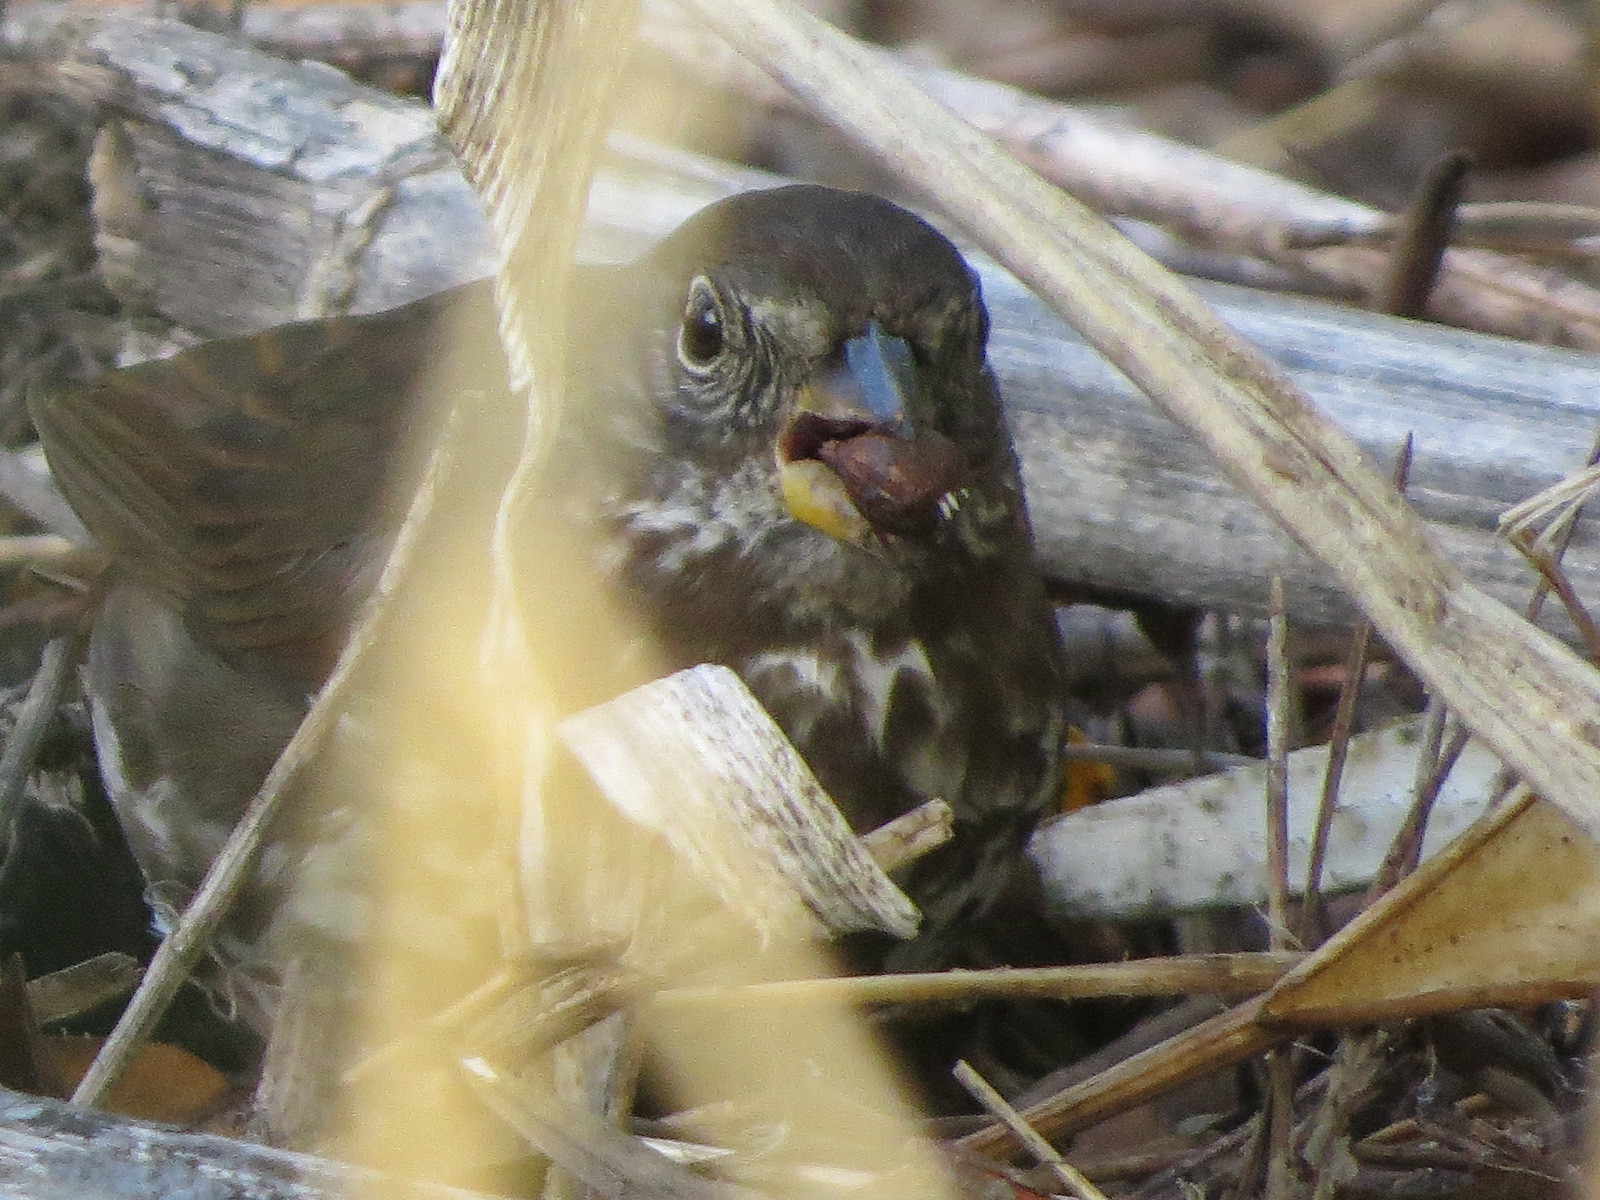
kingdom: Animalia
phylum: Chordata
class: Aves
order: Passeriformes
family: Passerellidae
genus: Passerella
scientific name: Passerella iliaca
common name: Fox sparrow
